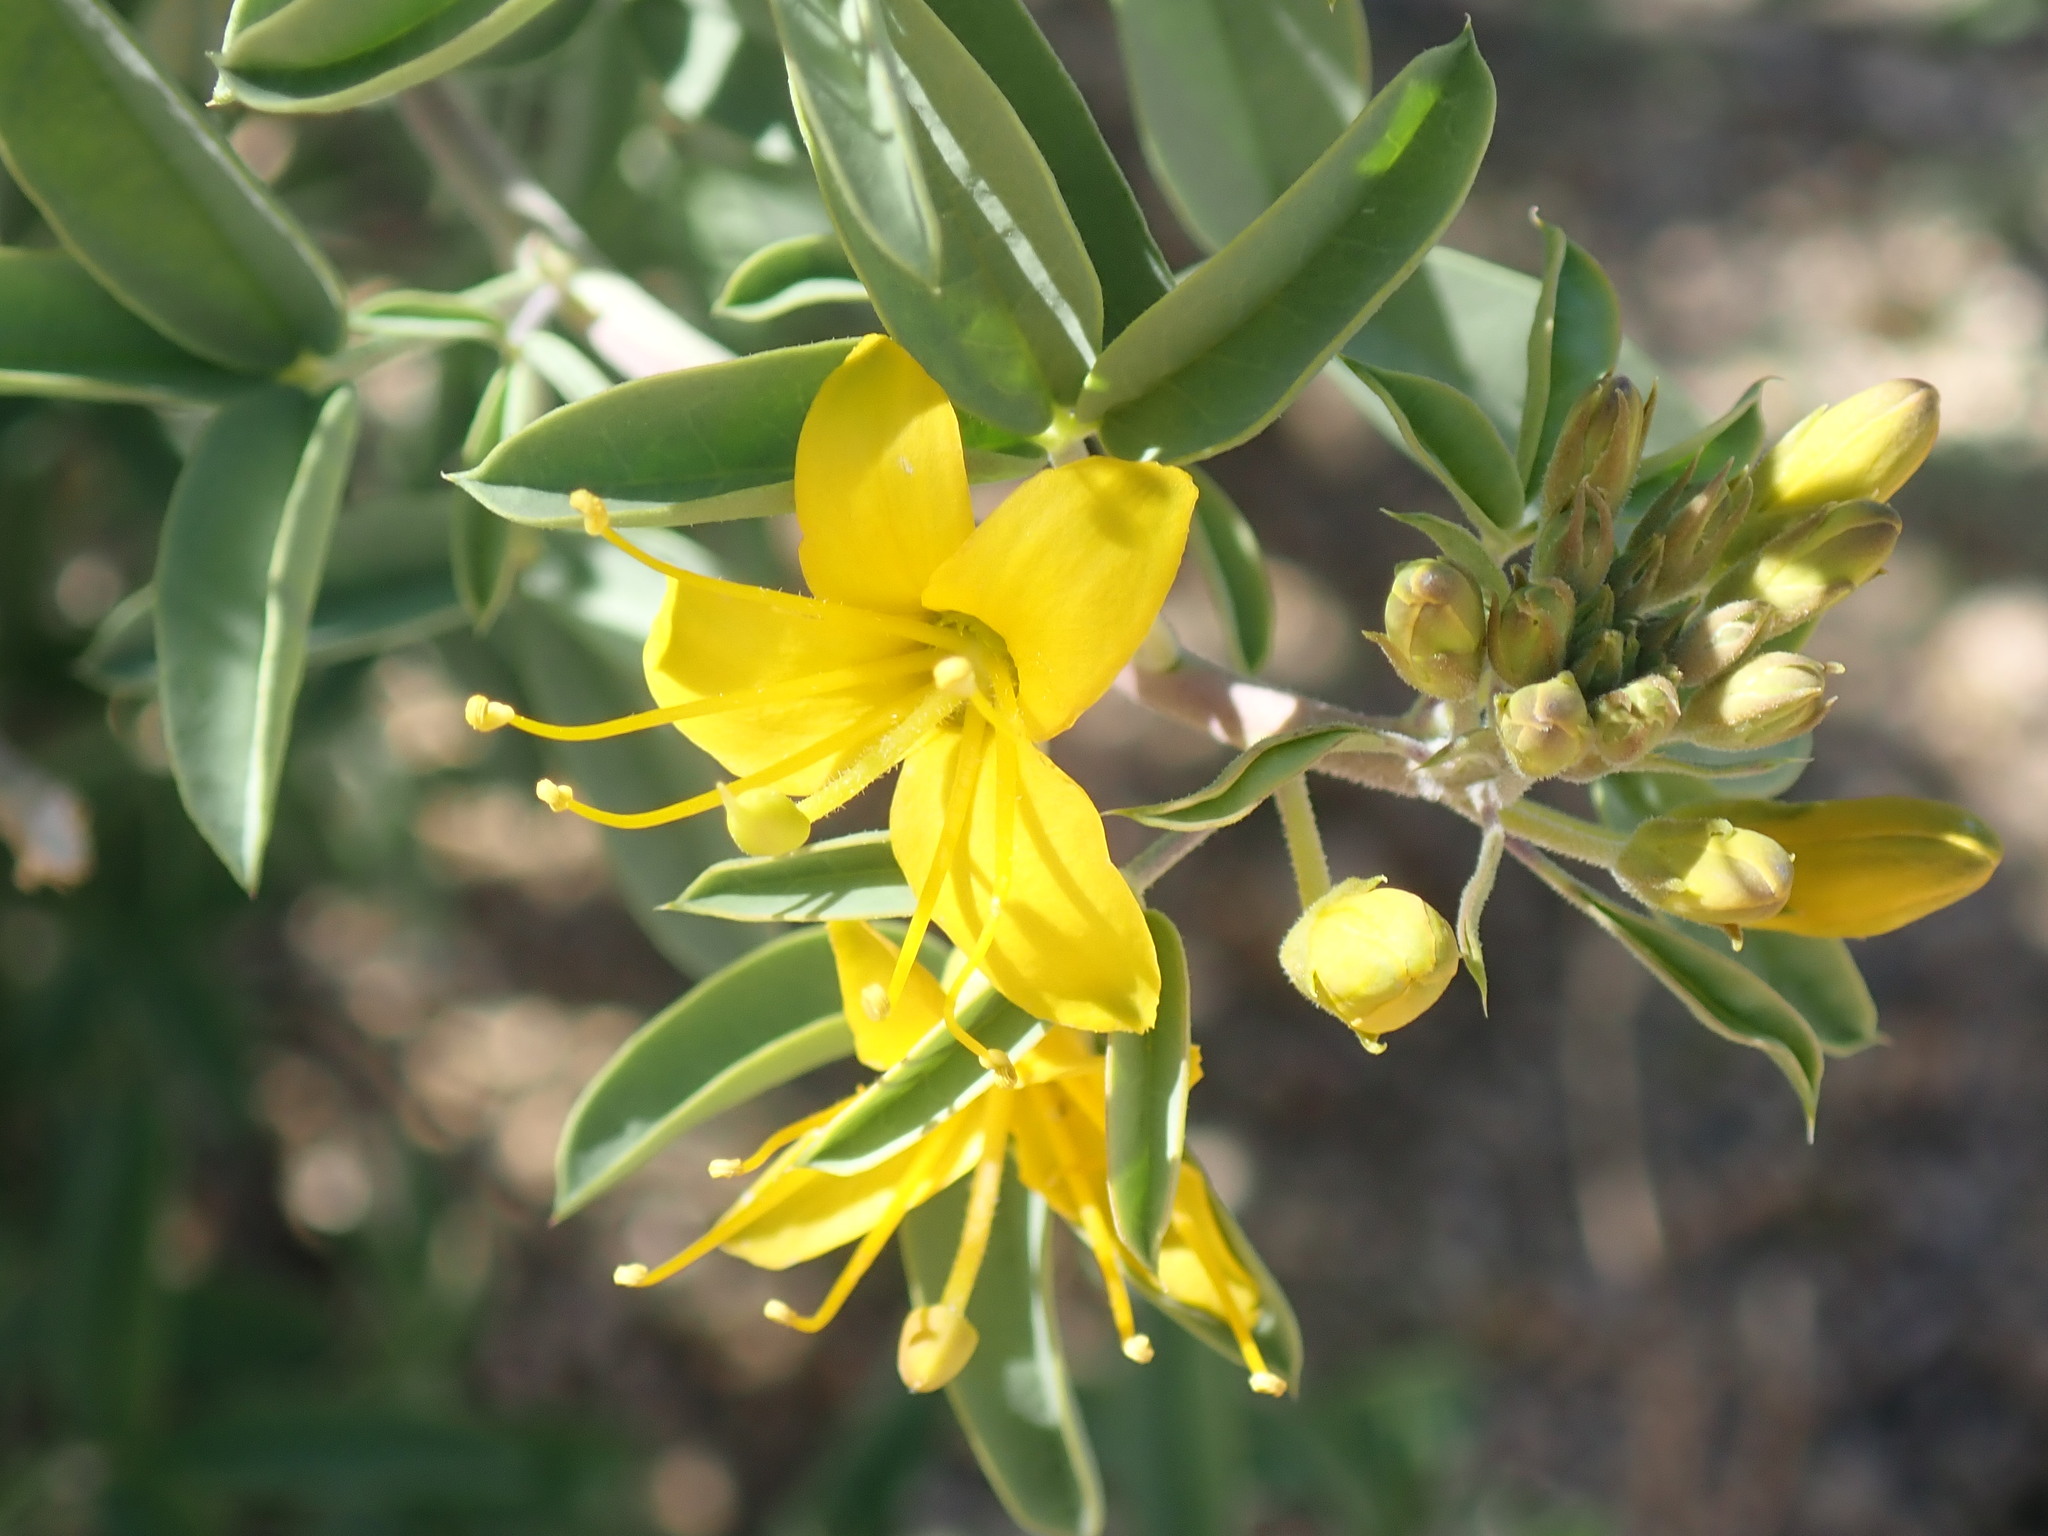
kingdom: Plantae
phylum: Tracheophyta
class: Magnoliopsida
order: Brassicales
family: Cleomaceae
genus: Cleomella
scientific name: Cleomella arborea
